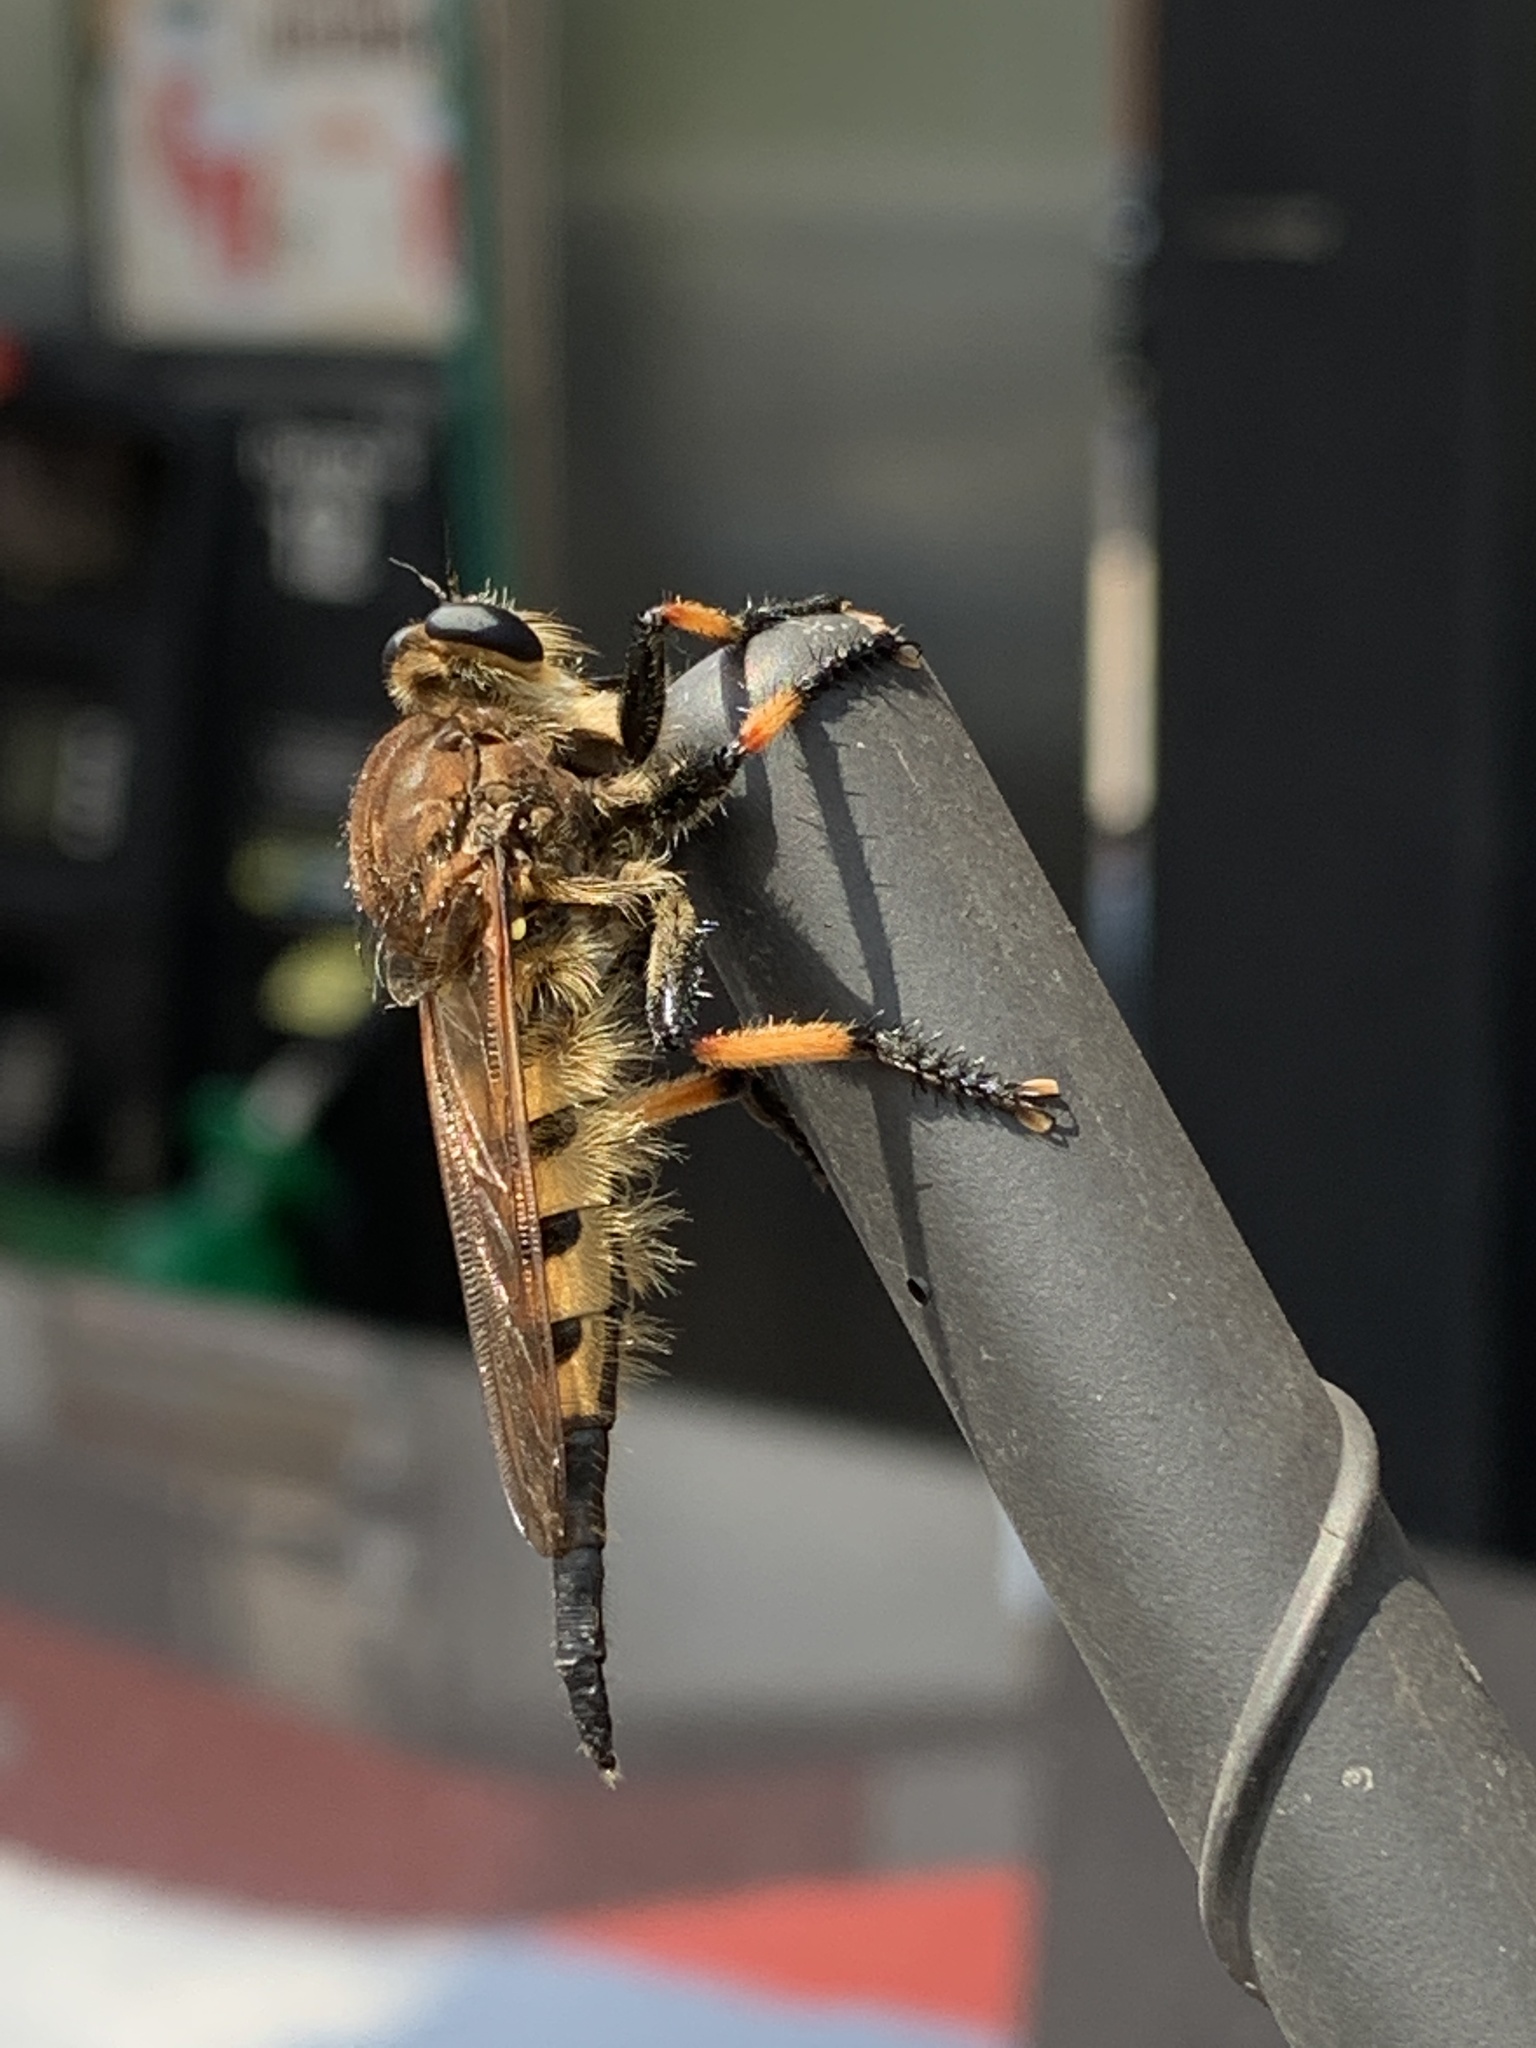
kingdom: Animalia
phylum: Arthropoda
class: Insecta
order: Diptera
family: Asilidae
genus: Promachus
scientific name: Promachus rufipes
